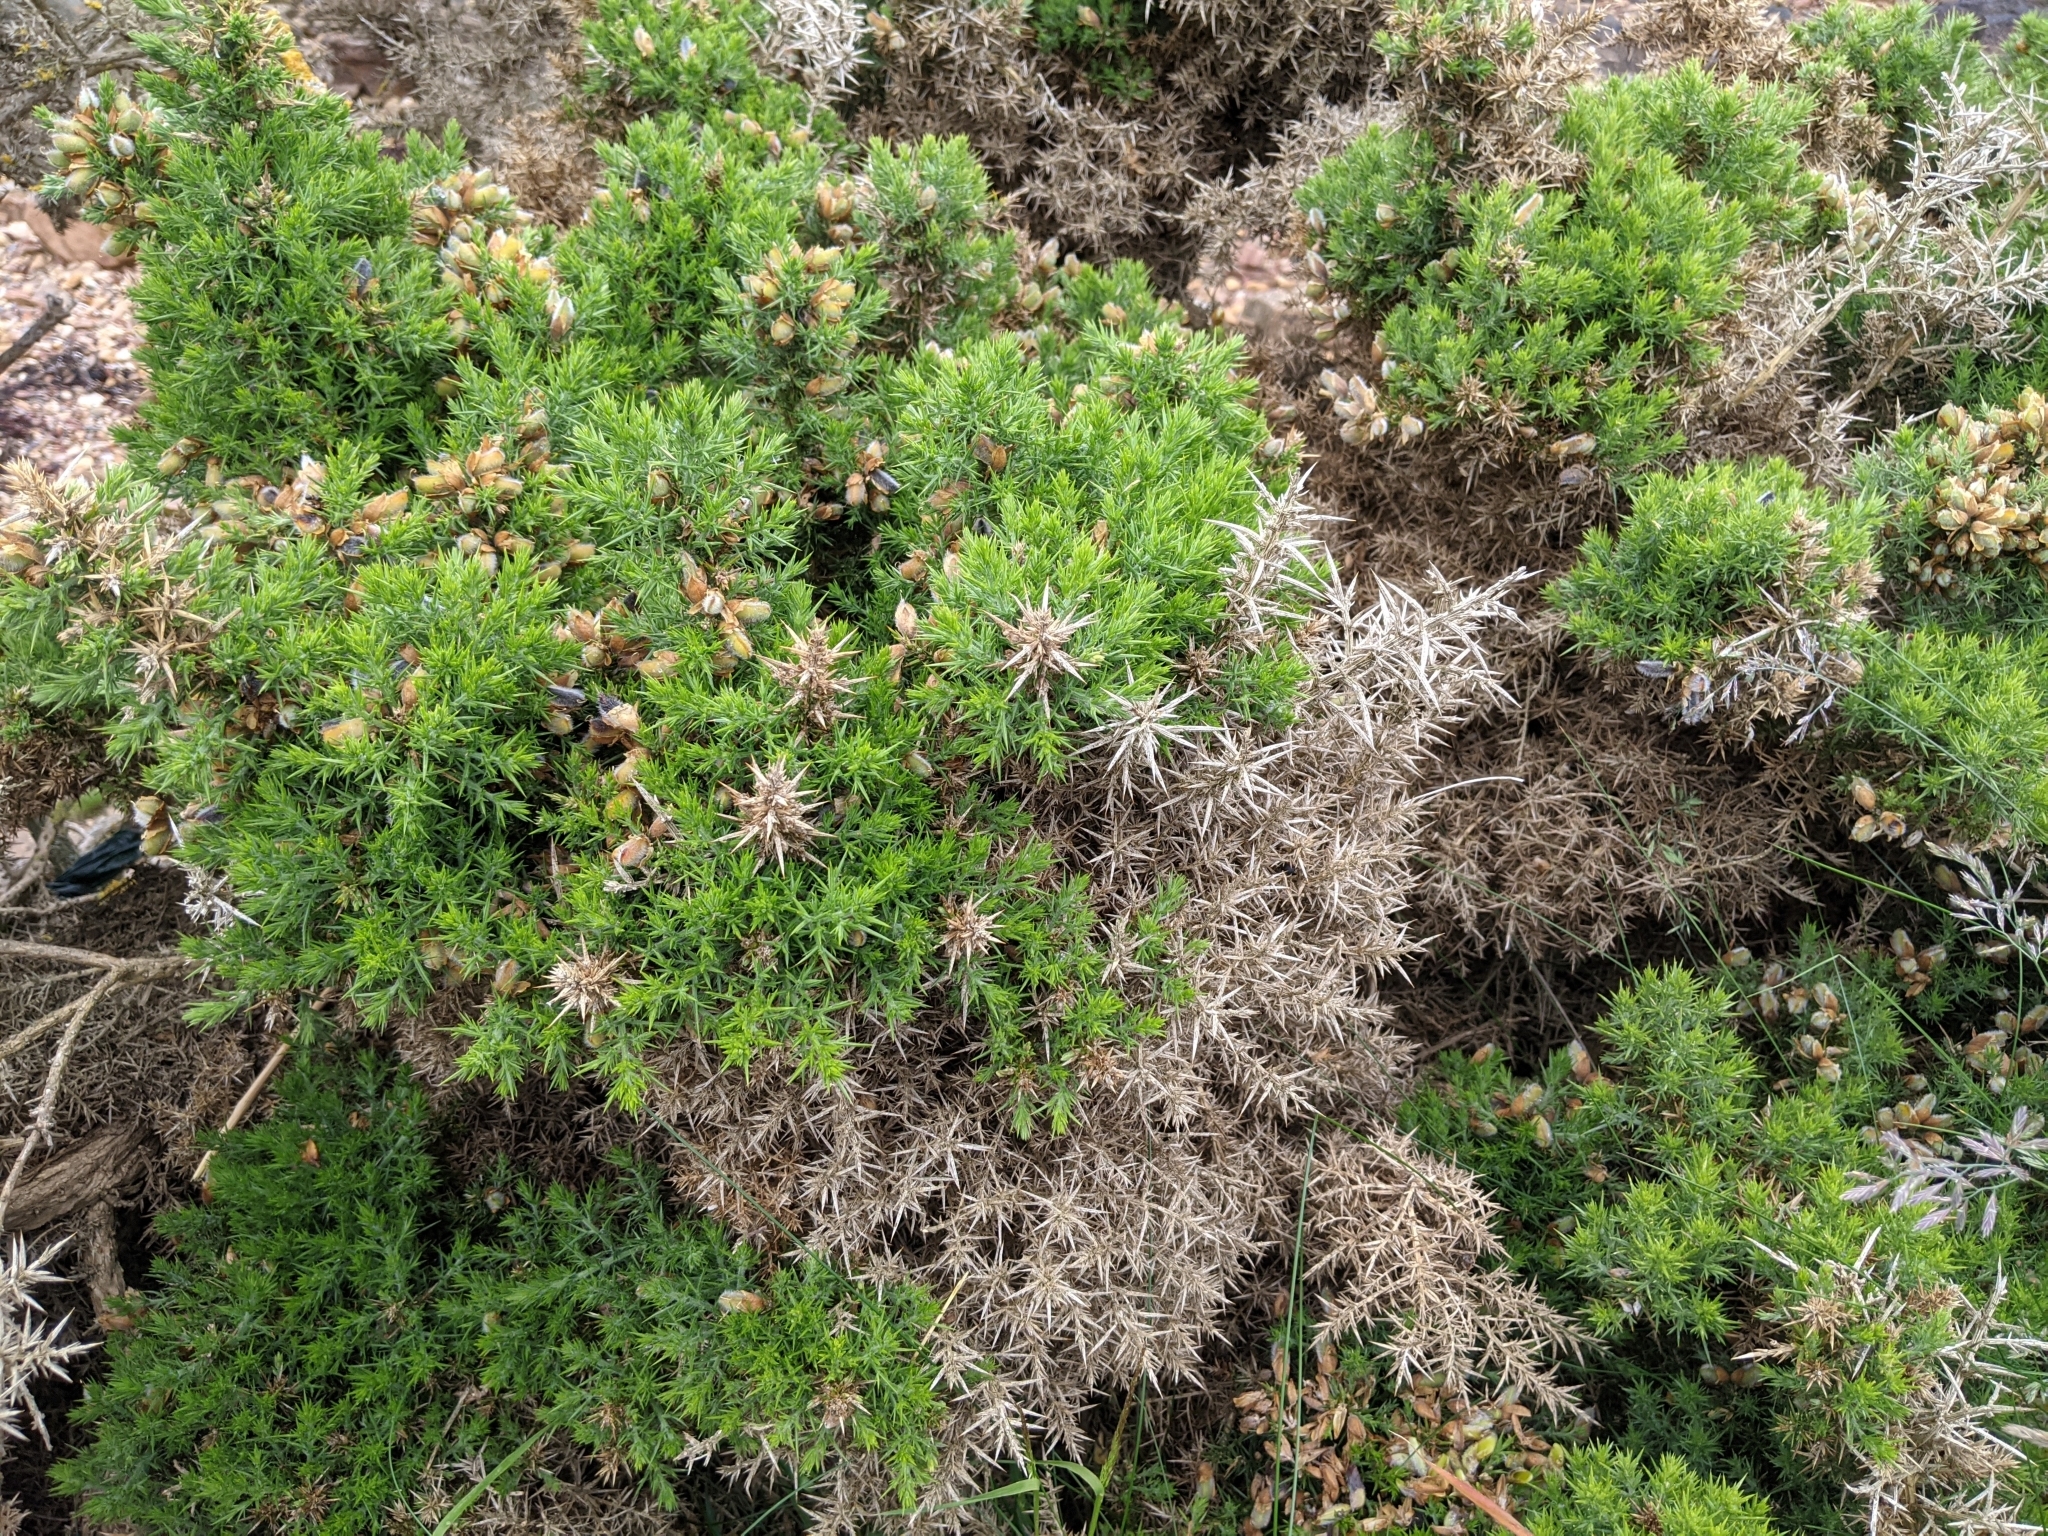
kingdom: Plantae
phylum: Tracheophyta
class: Magnoliopsida
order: Fabales
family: Fabaceae
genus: Ulex
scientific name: Ulex europaeus
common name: Common gorse
